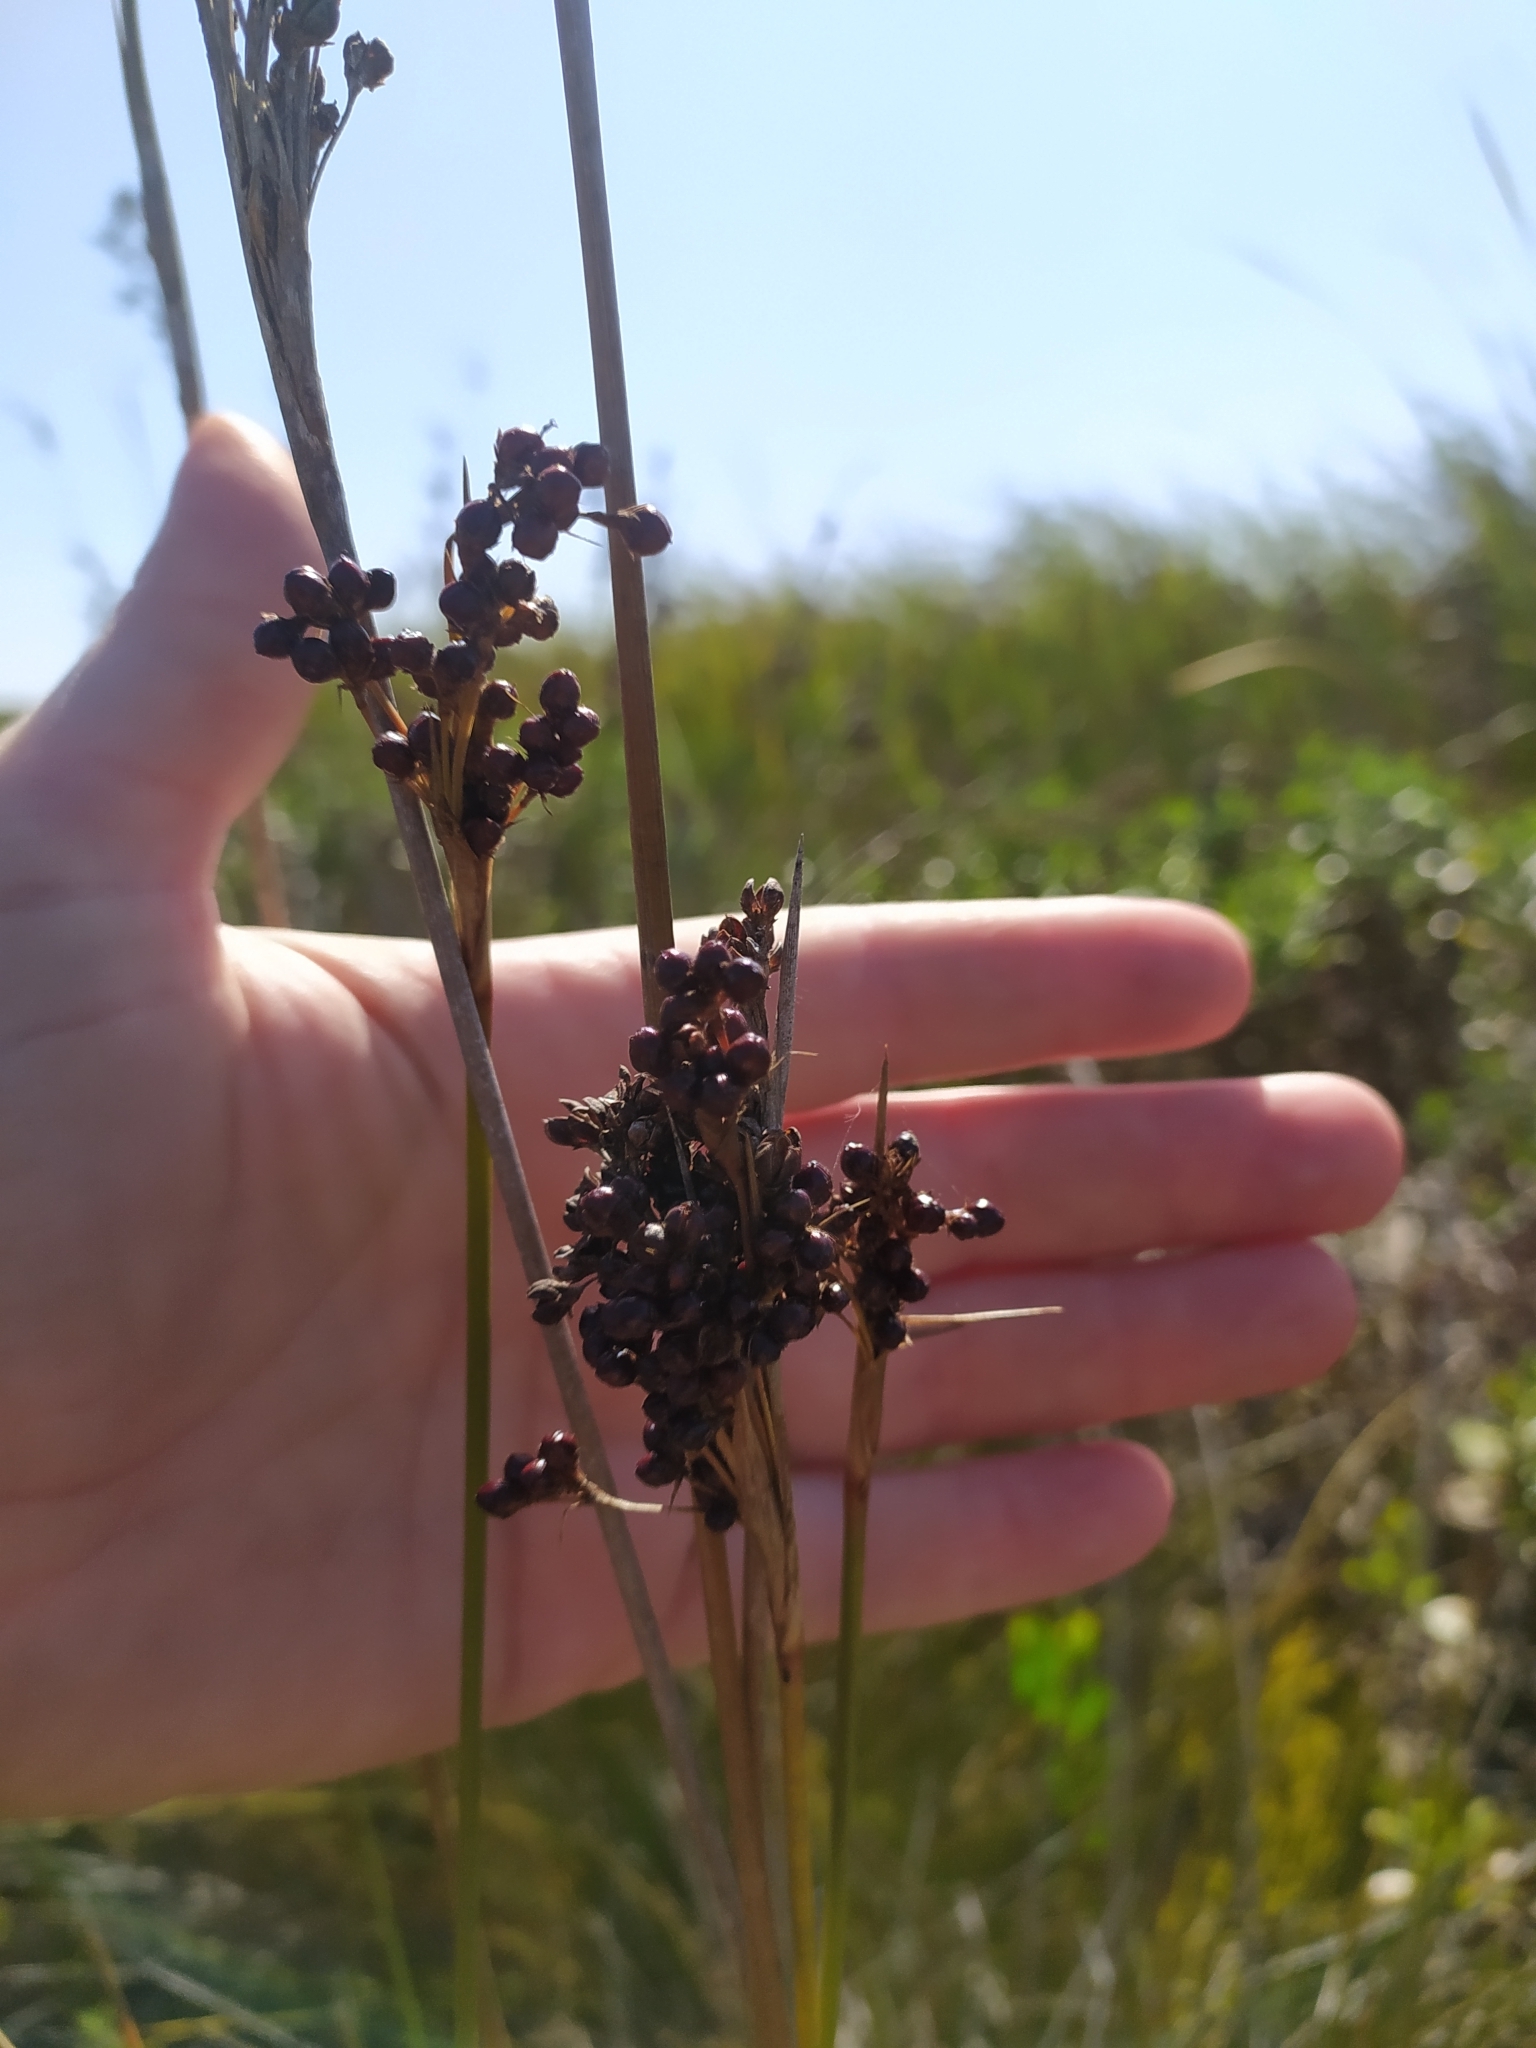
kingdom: Plantae
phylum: Tracheophyta
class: Liliopsida
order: Poales
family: Juncaceae
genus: Juncus
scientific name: Juncus acutus
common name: Sharp rush
